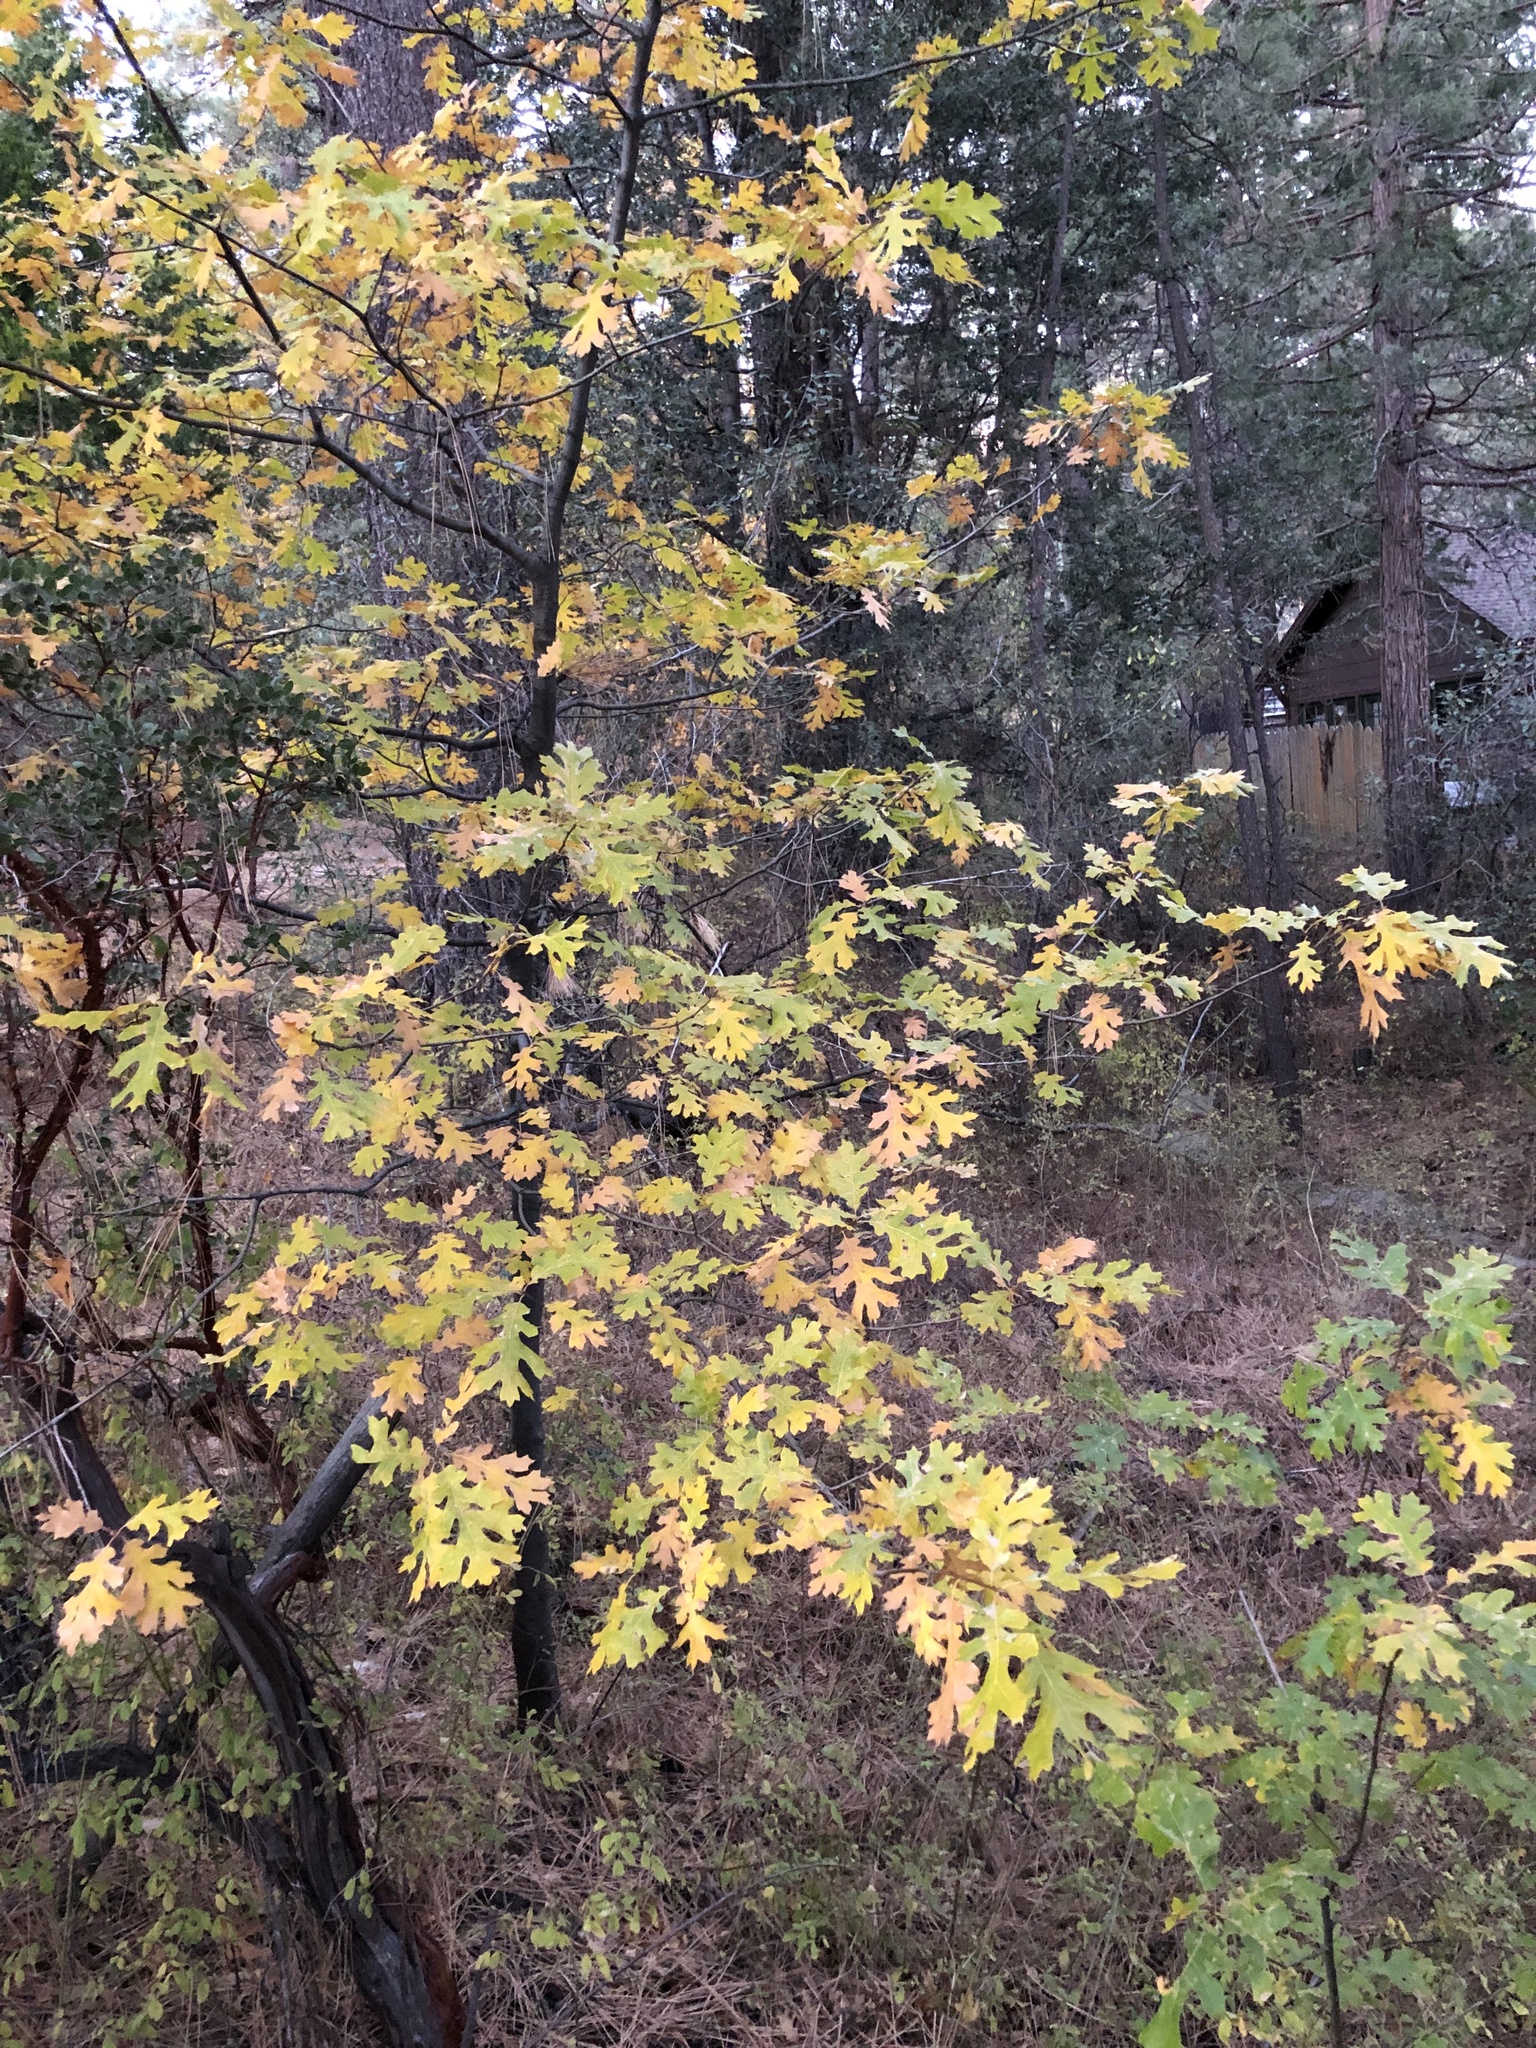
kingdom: Plantae
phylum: Tracheophyta
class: Magnoliopsida
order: Fagales
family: Fagaceae
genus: Quercus
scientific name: Quercus kelloggii
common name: California black oak
